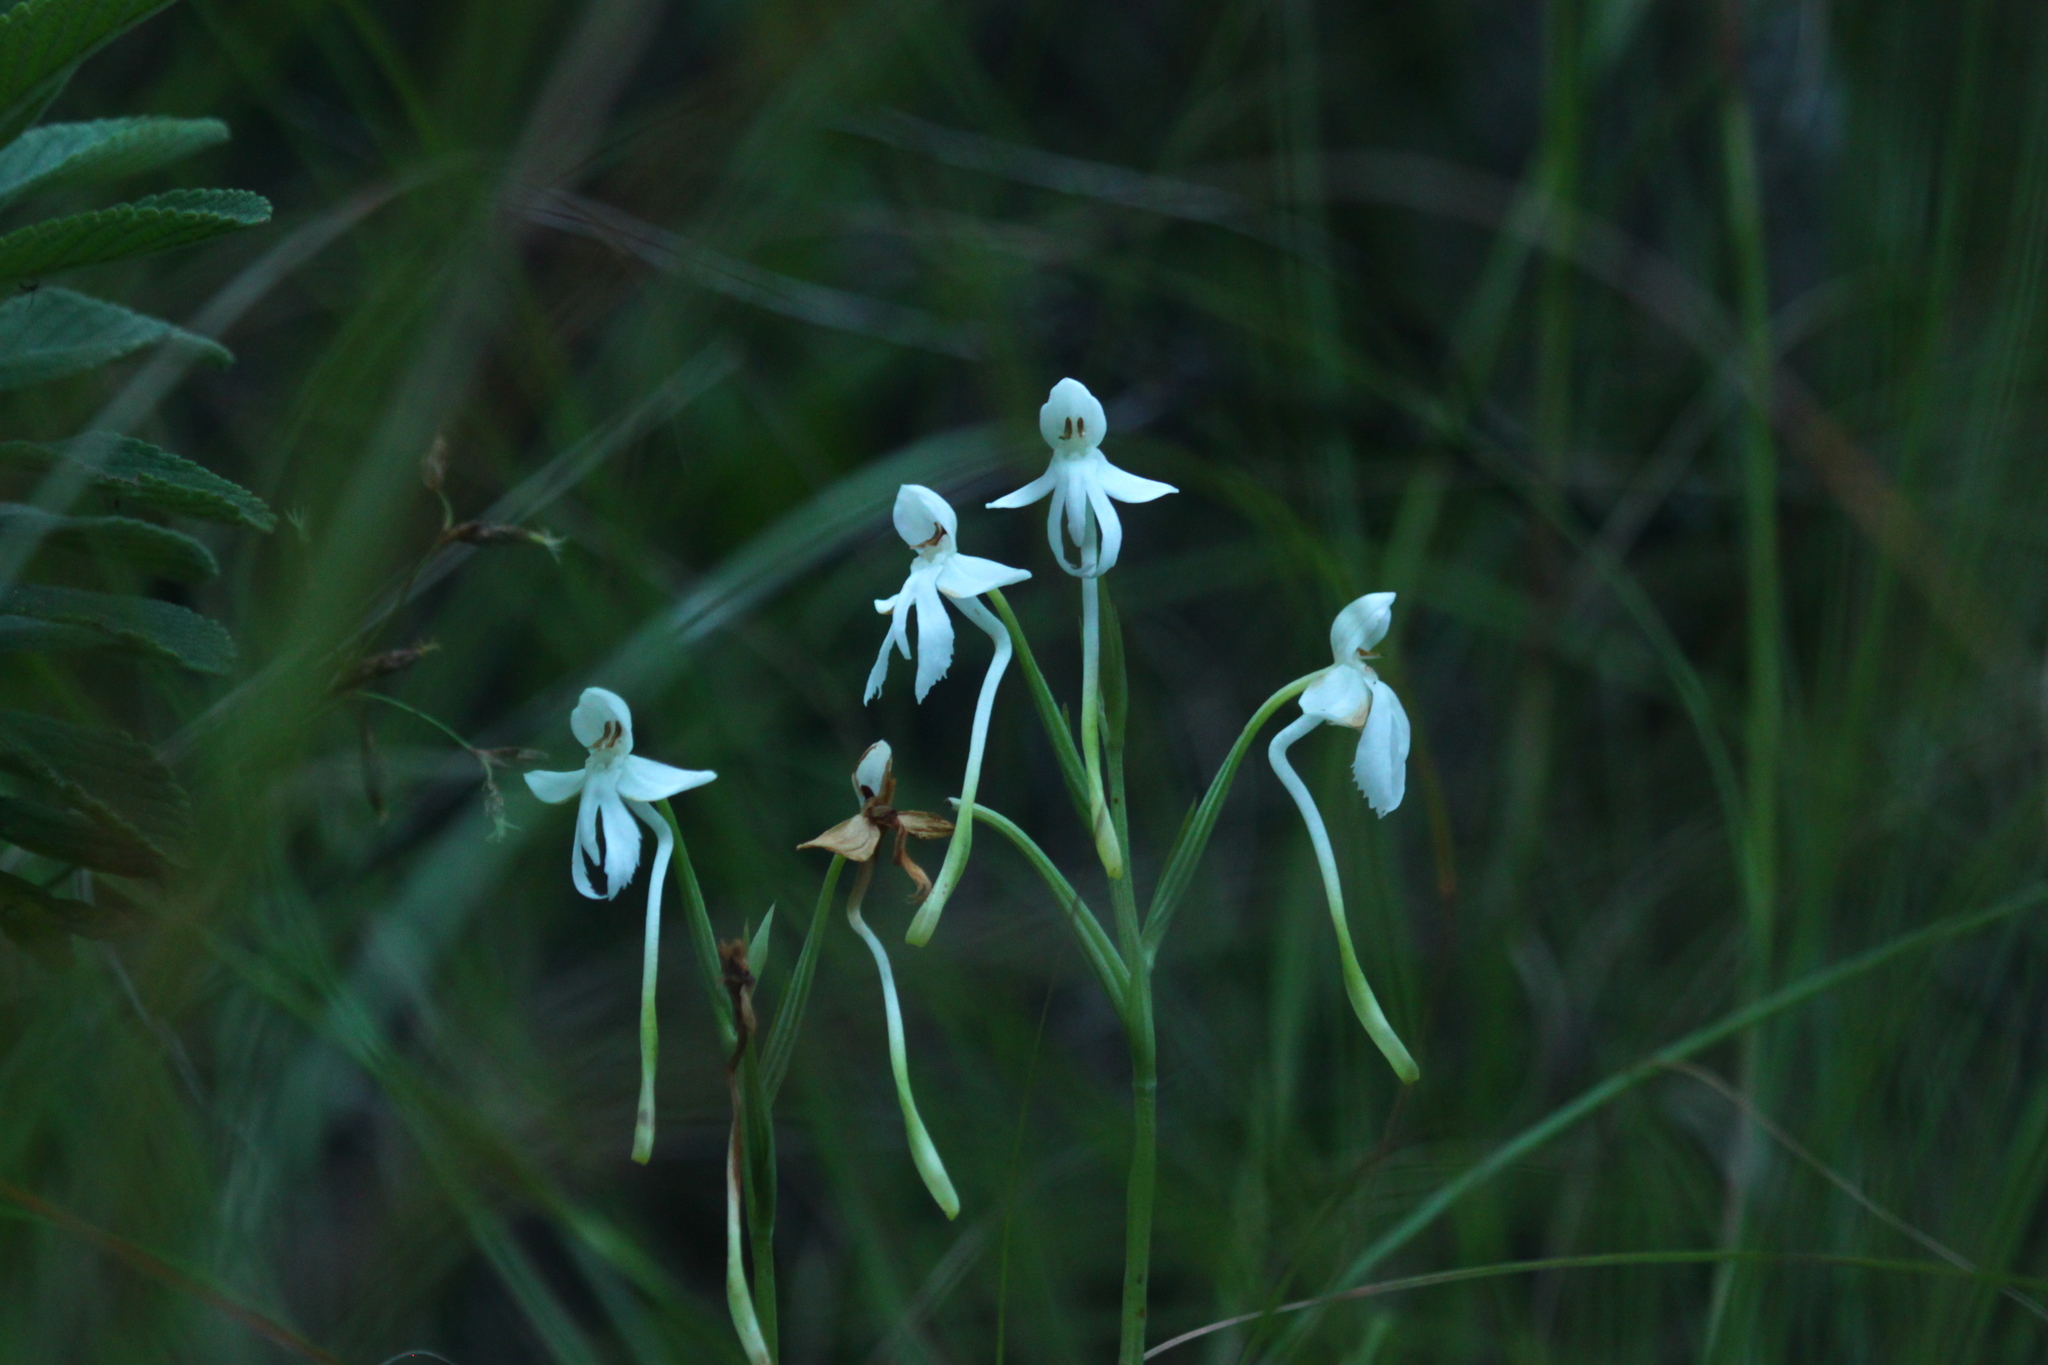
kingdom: Plantae
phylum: Tracheophyta
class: Liliopsida
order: Asparagales
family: Orchidaceae
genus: Habenaria
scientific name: Habenaria longicornu
